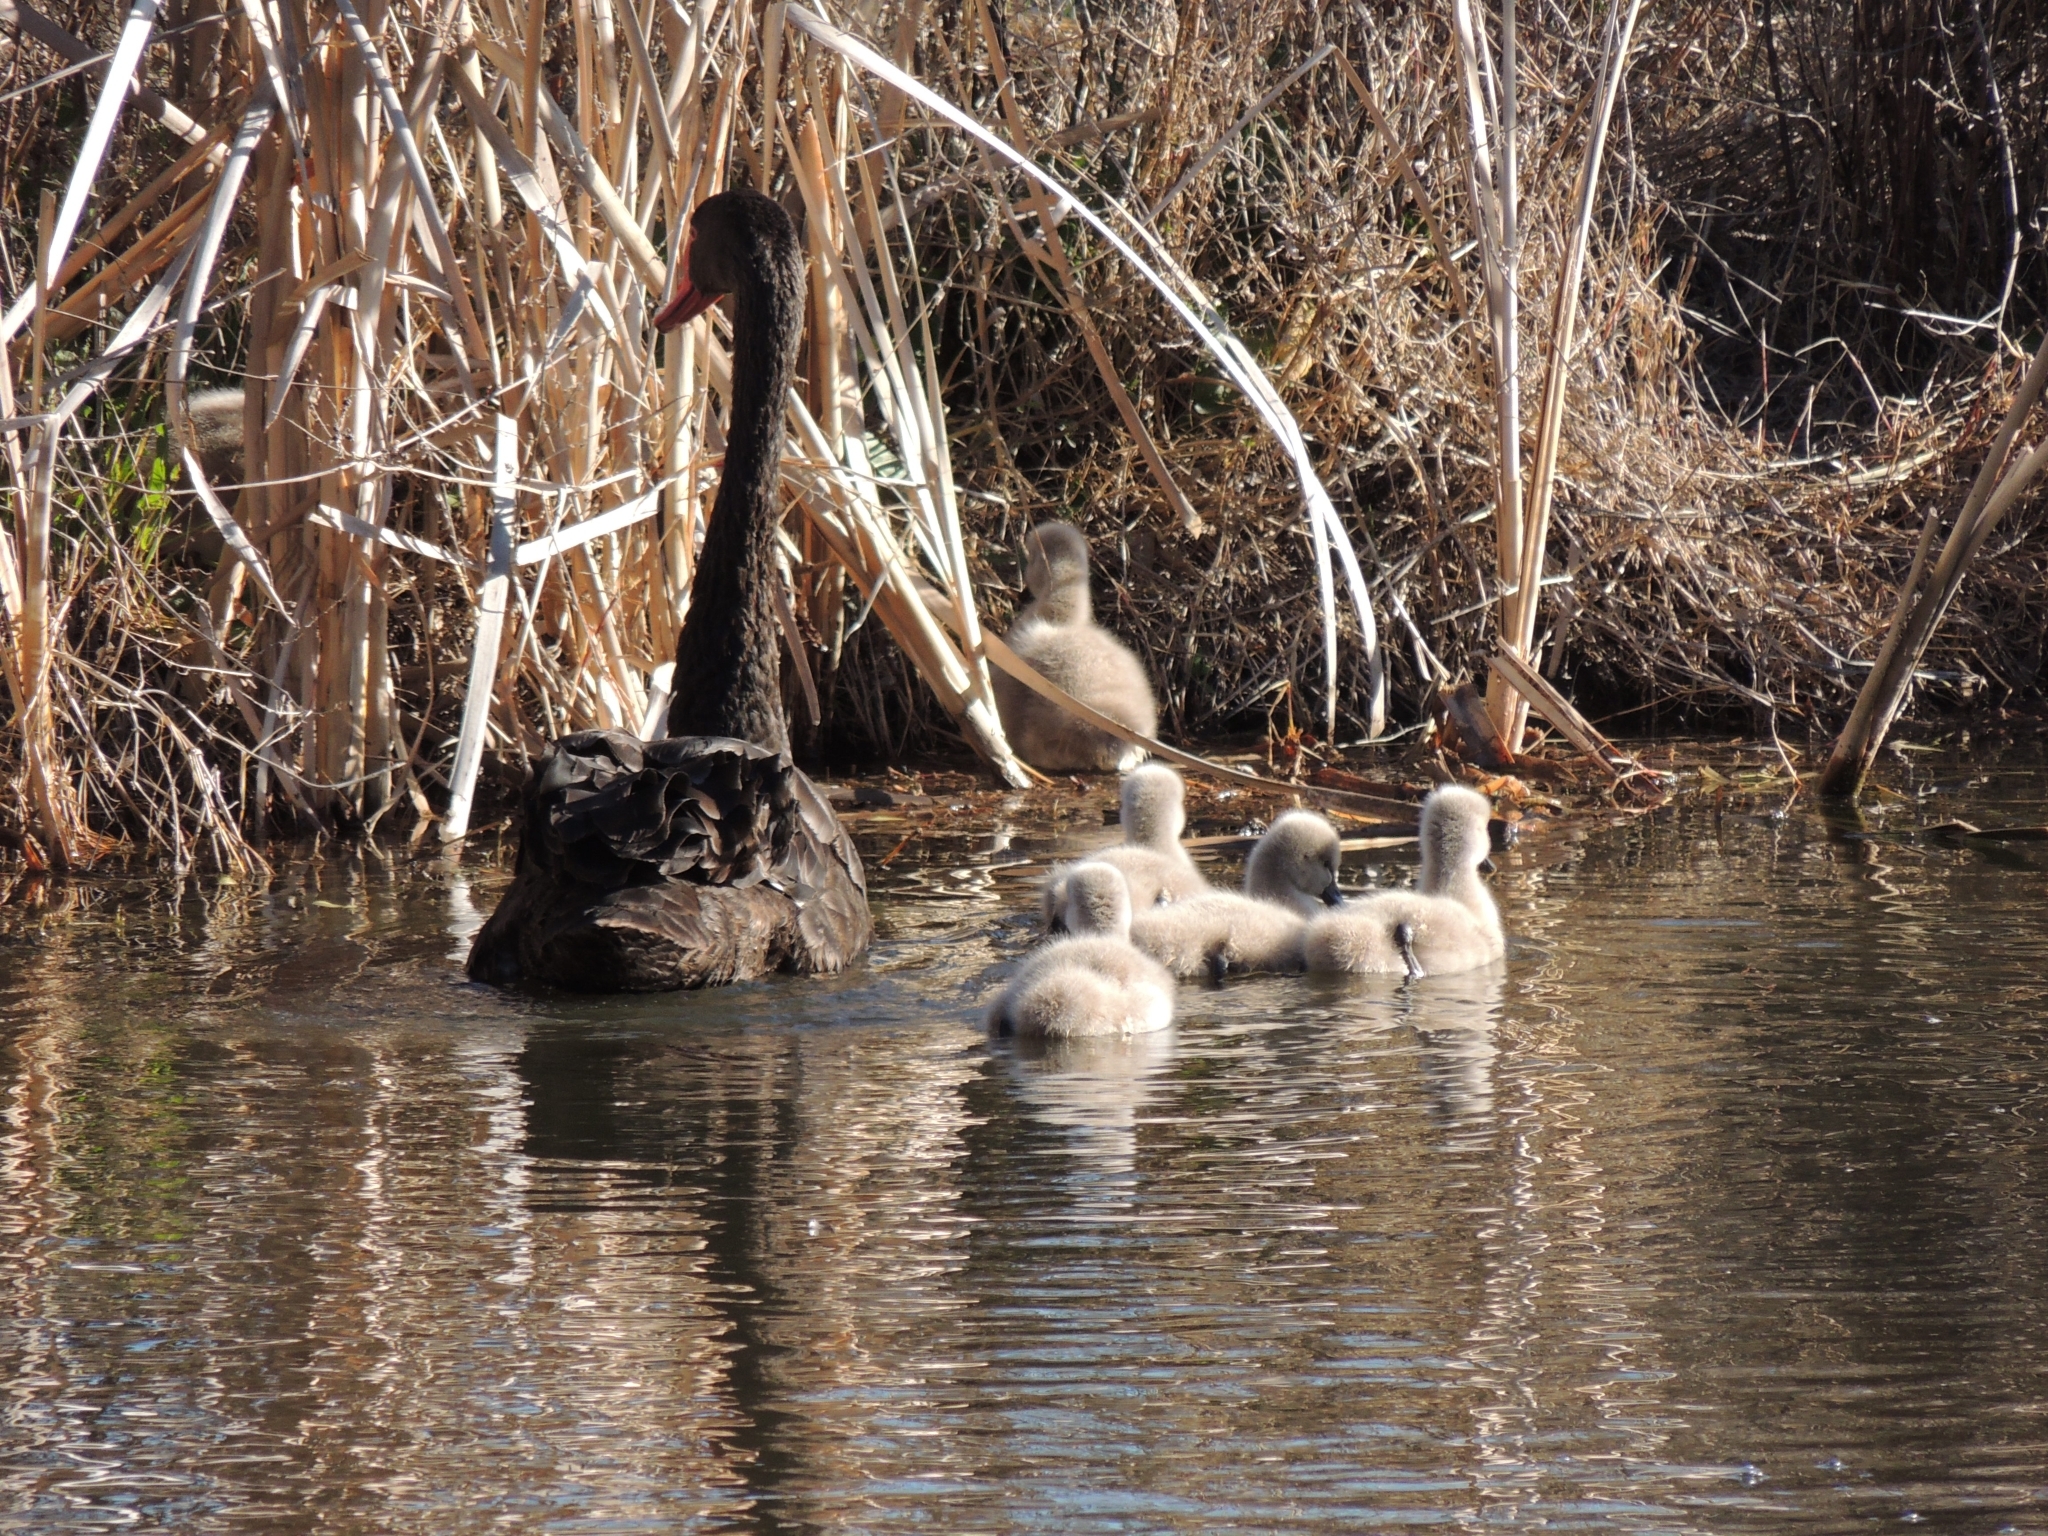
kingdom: Animalia
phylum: Chordata
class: Aves
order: Anseriformes
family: Anatidae
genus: Cygnus
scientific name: Cygnus atratus
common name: Black swan
